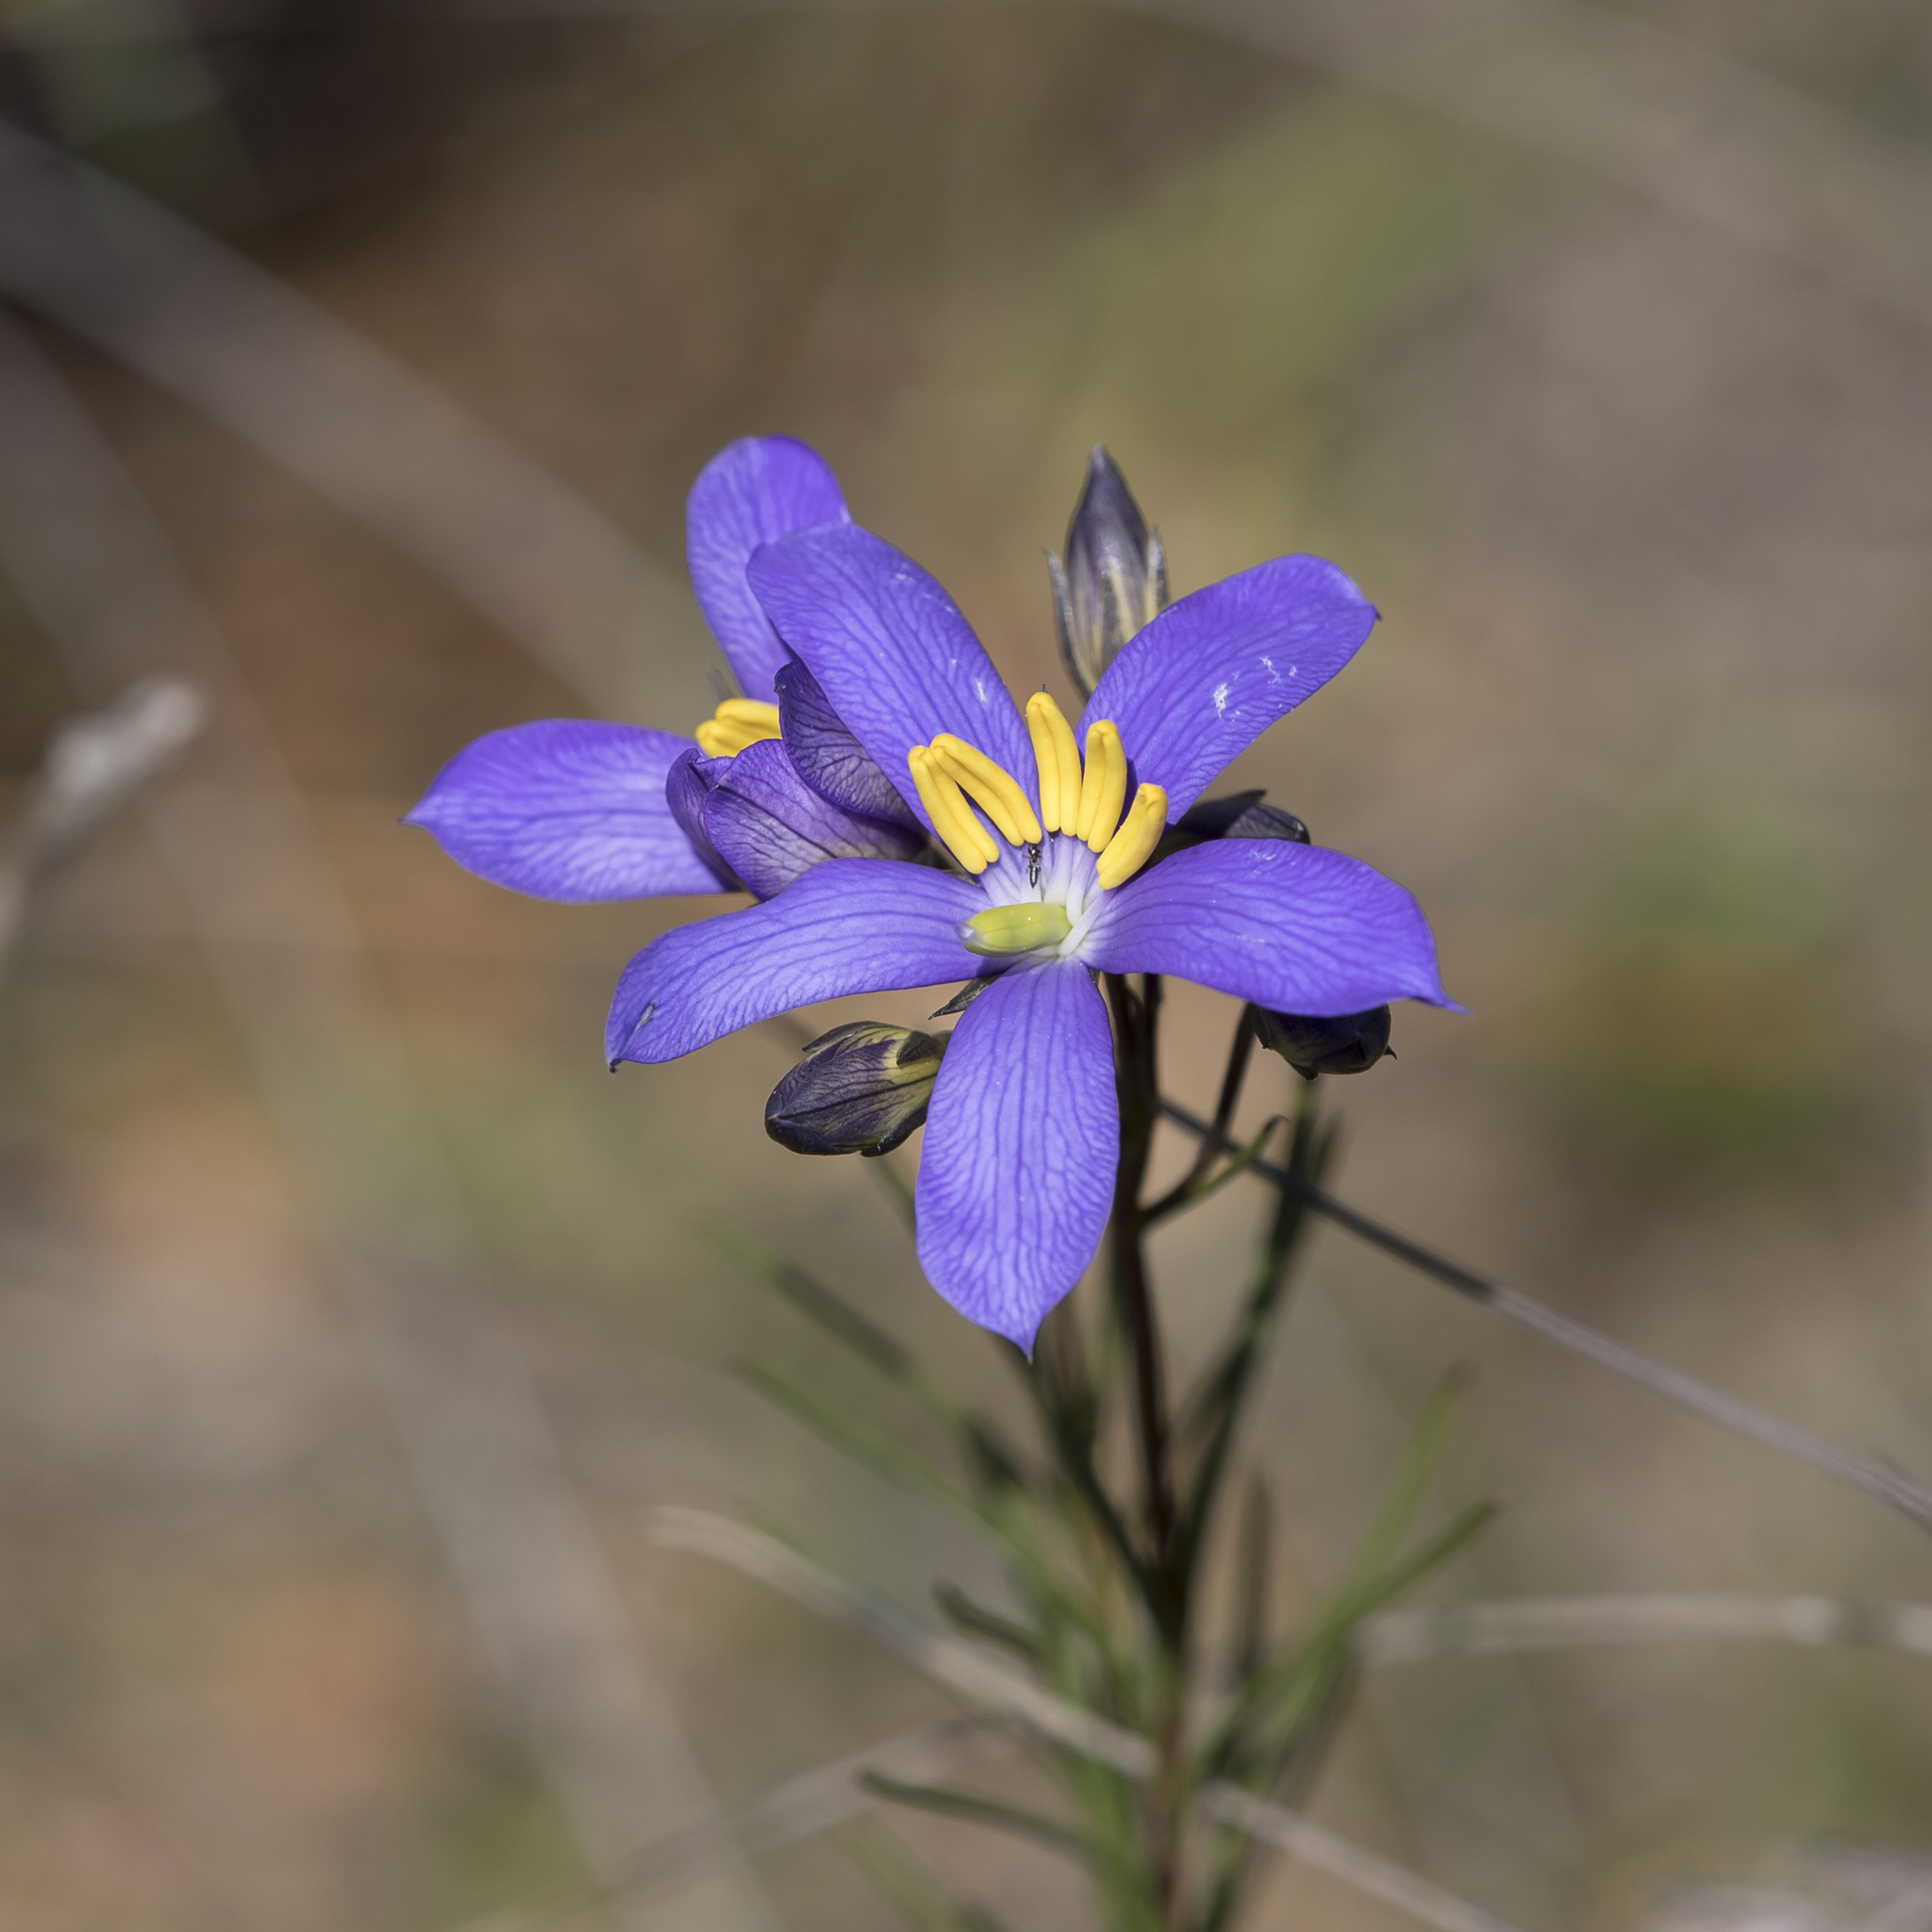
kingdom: Plantae
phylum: Tracheophyta
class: Magnoliopsida
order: Apiales
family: Pittosporaceae
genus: Cheiranthera
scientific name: Cheiranthera alternifolia
